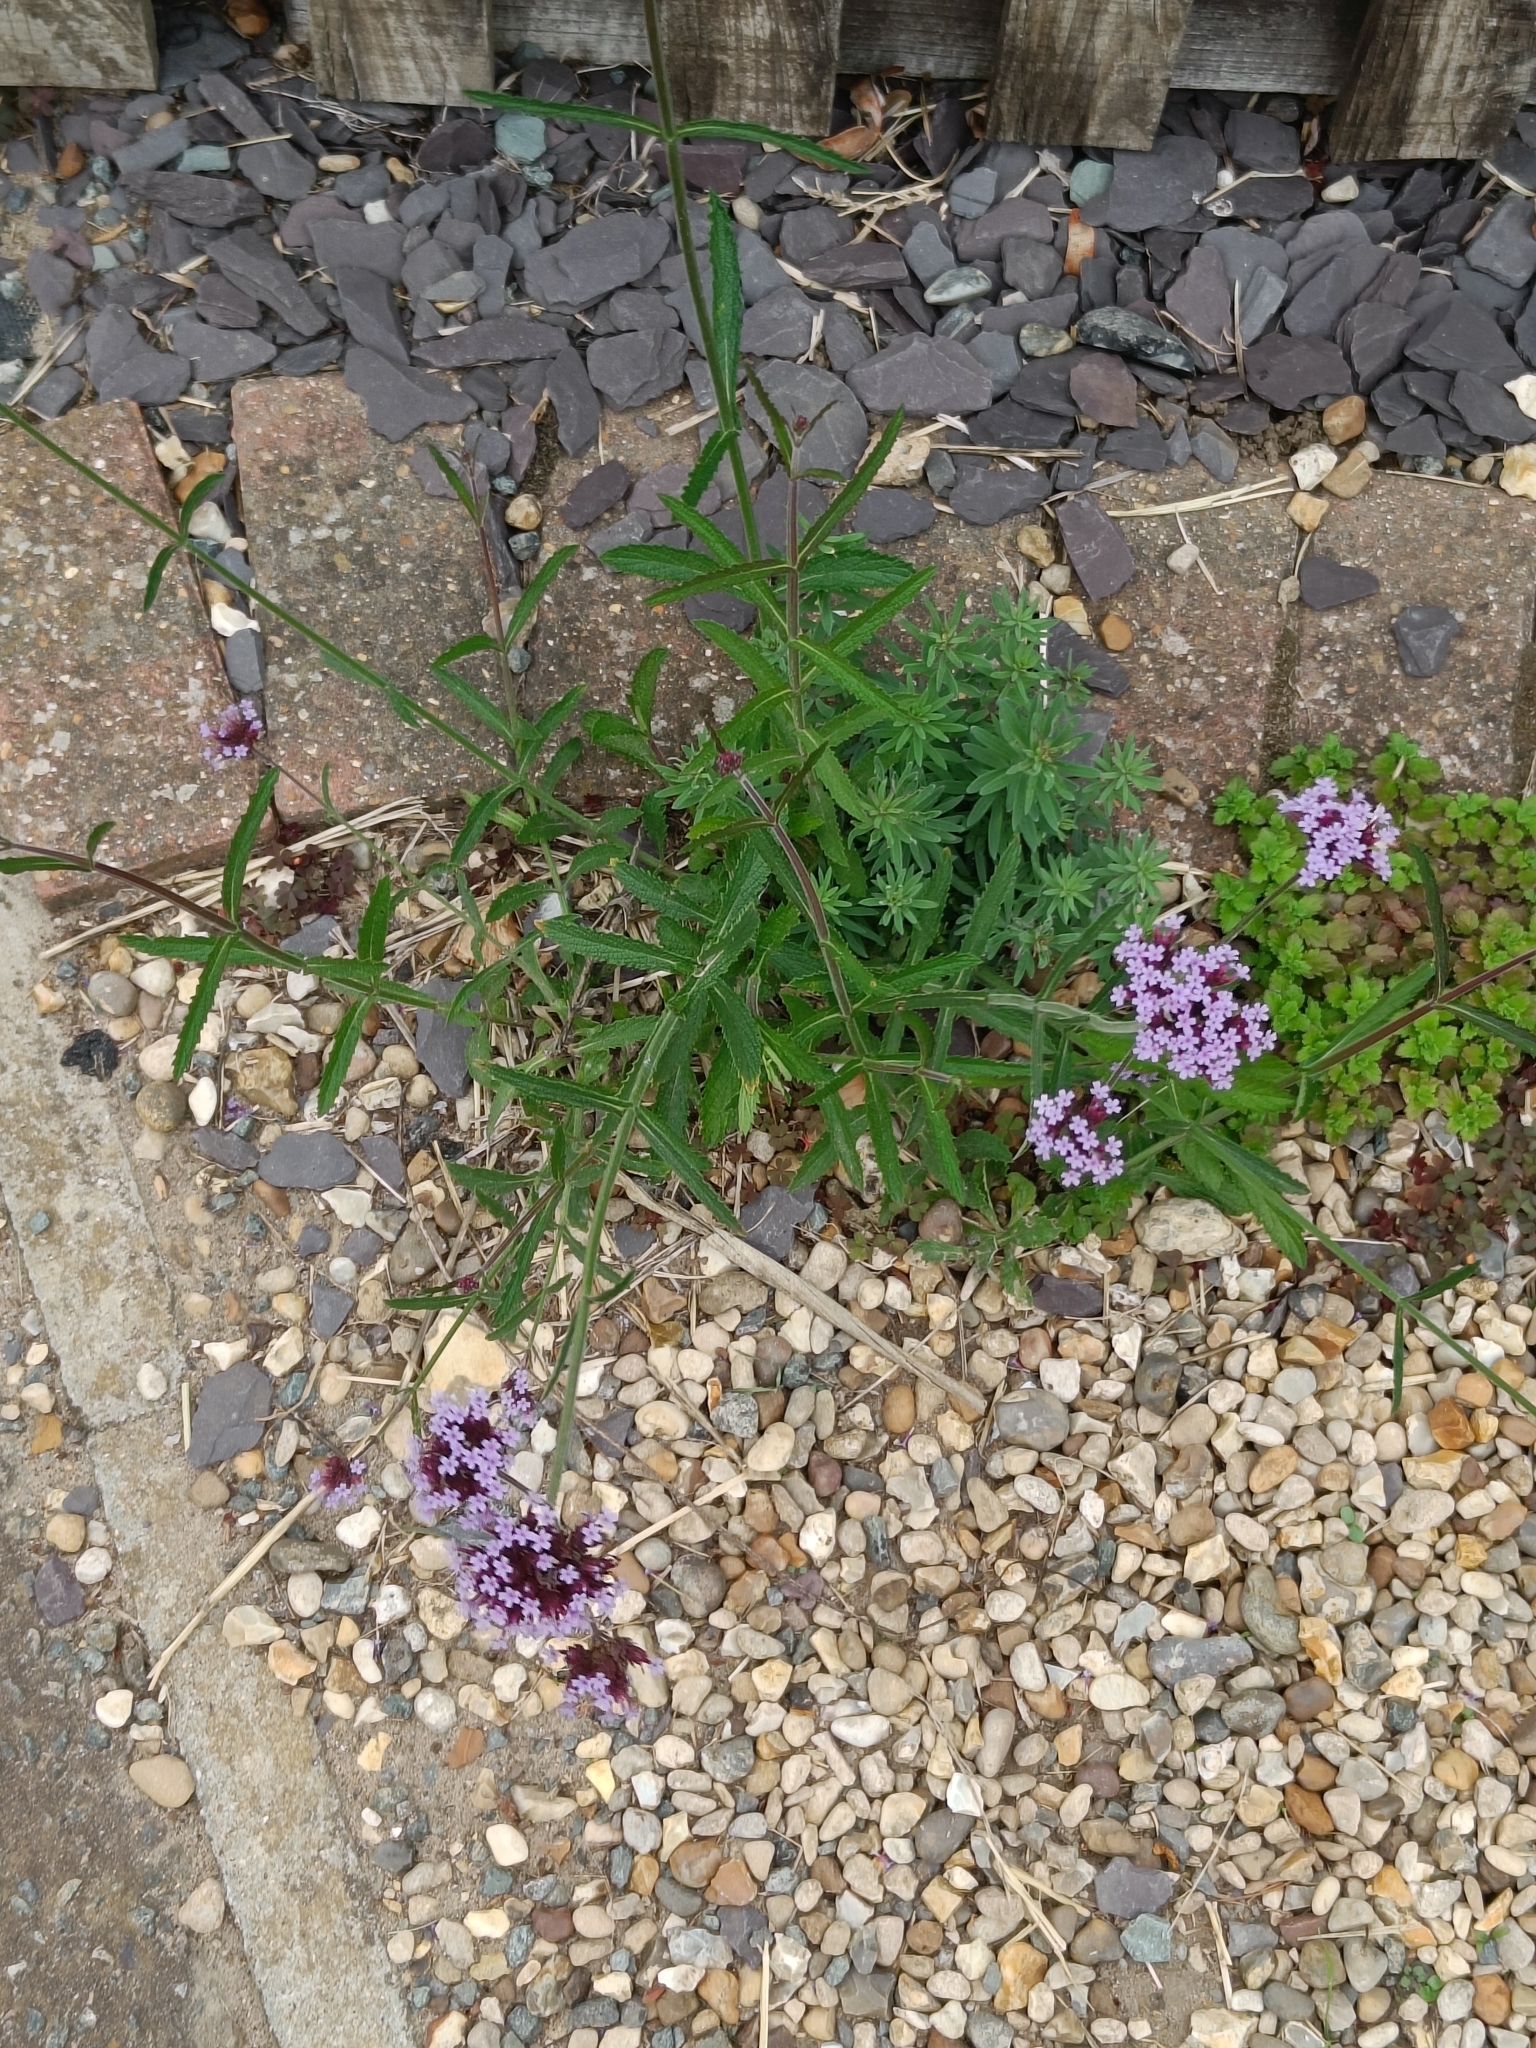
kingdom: Plantae
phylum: Tracheophyta
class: Magnoliopsida
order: Lamiales
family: Verbenaceae
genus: Verbena
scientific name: Verbena bonariensis
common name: Purpletop vervain
